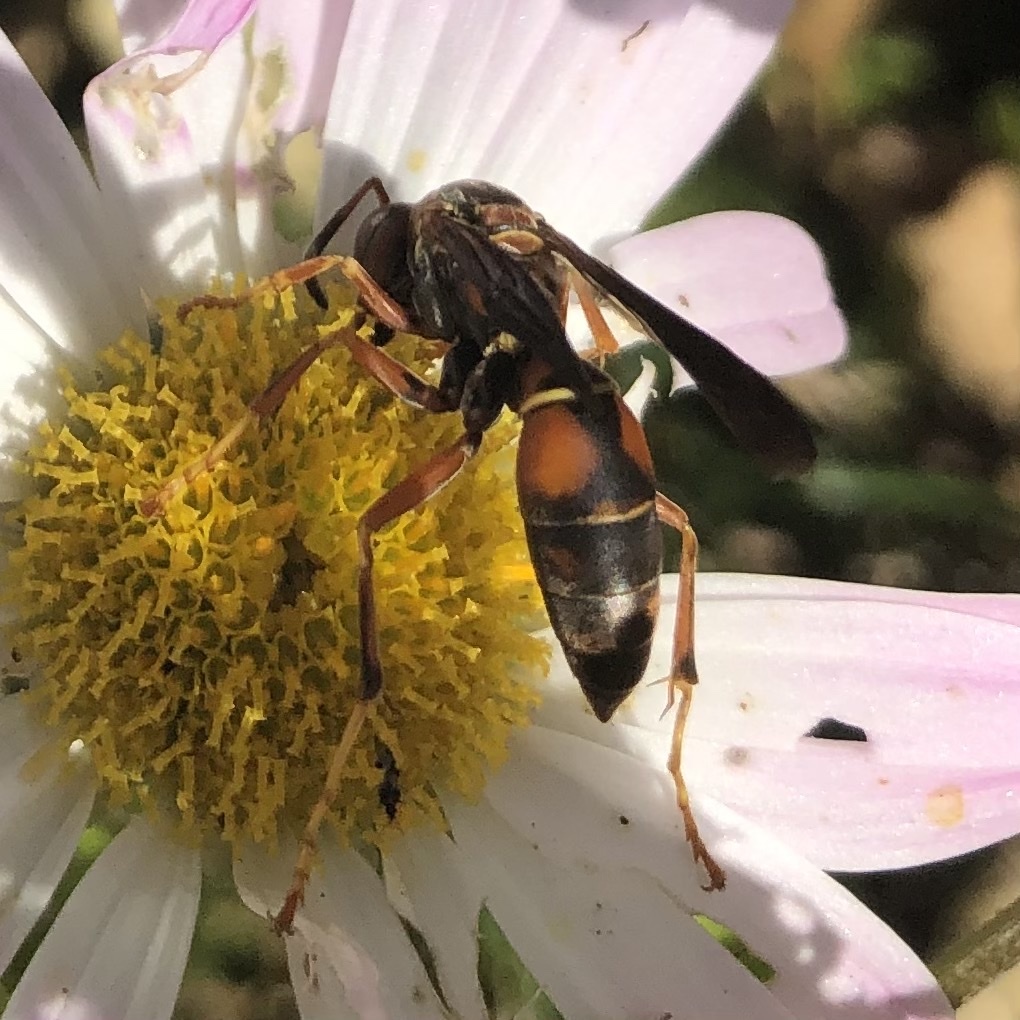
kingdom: Animalia
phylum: Arthropoda
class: Insecta
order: Hymenoptera
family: Eumenidae
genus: Polistes
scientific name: Polistes fuscatus
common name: Dark paper wasp
